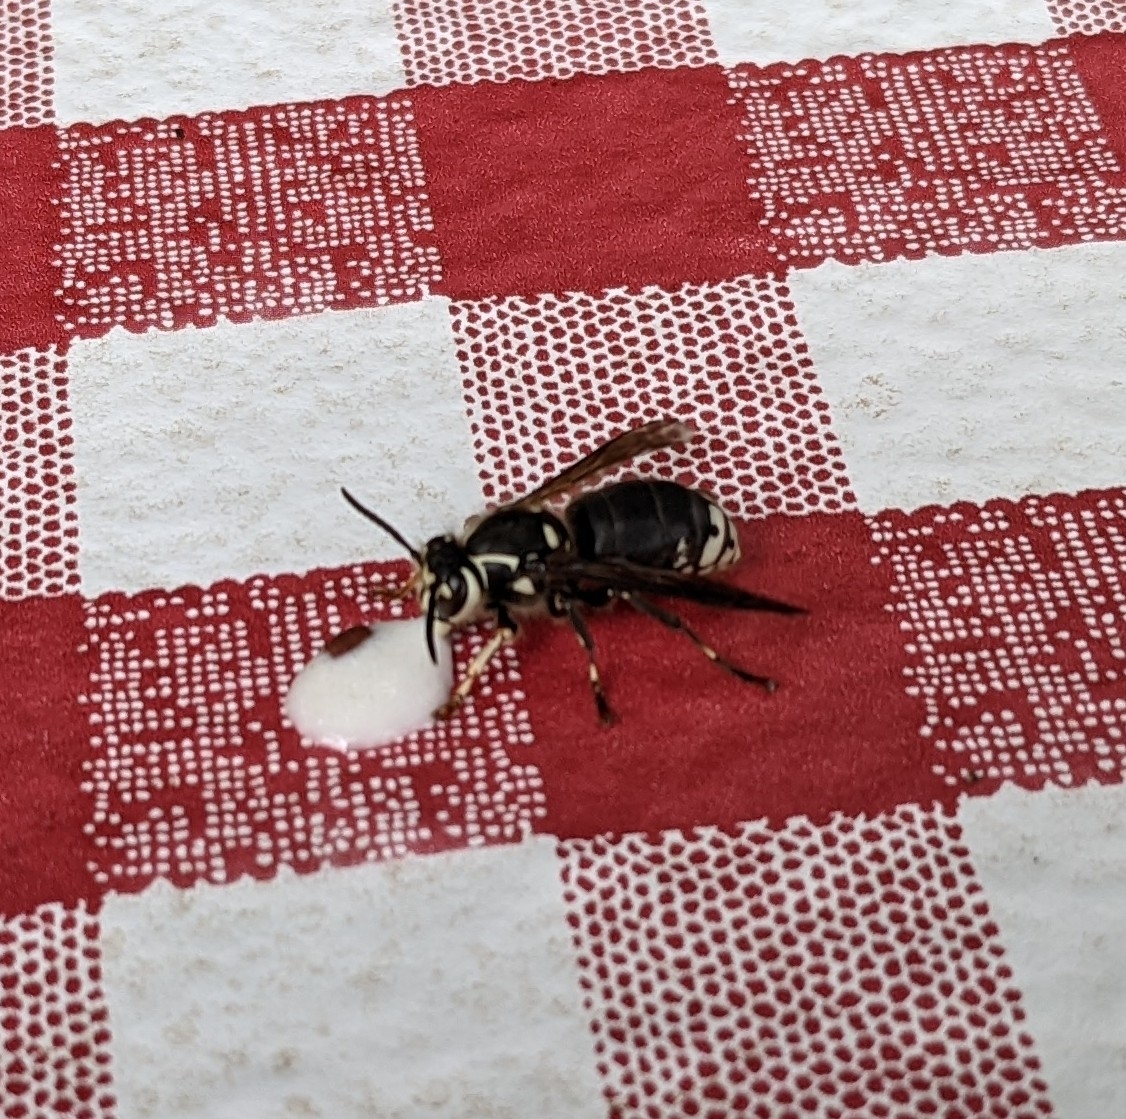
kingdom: Animalia
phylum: Arthropoda
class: Insecta
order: Hymenoptera
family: Vespidae
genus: Dolichovespula
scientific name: Dolichovespula maculata
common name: Bald-faced hornet
